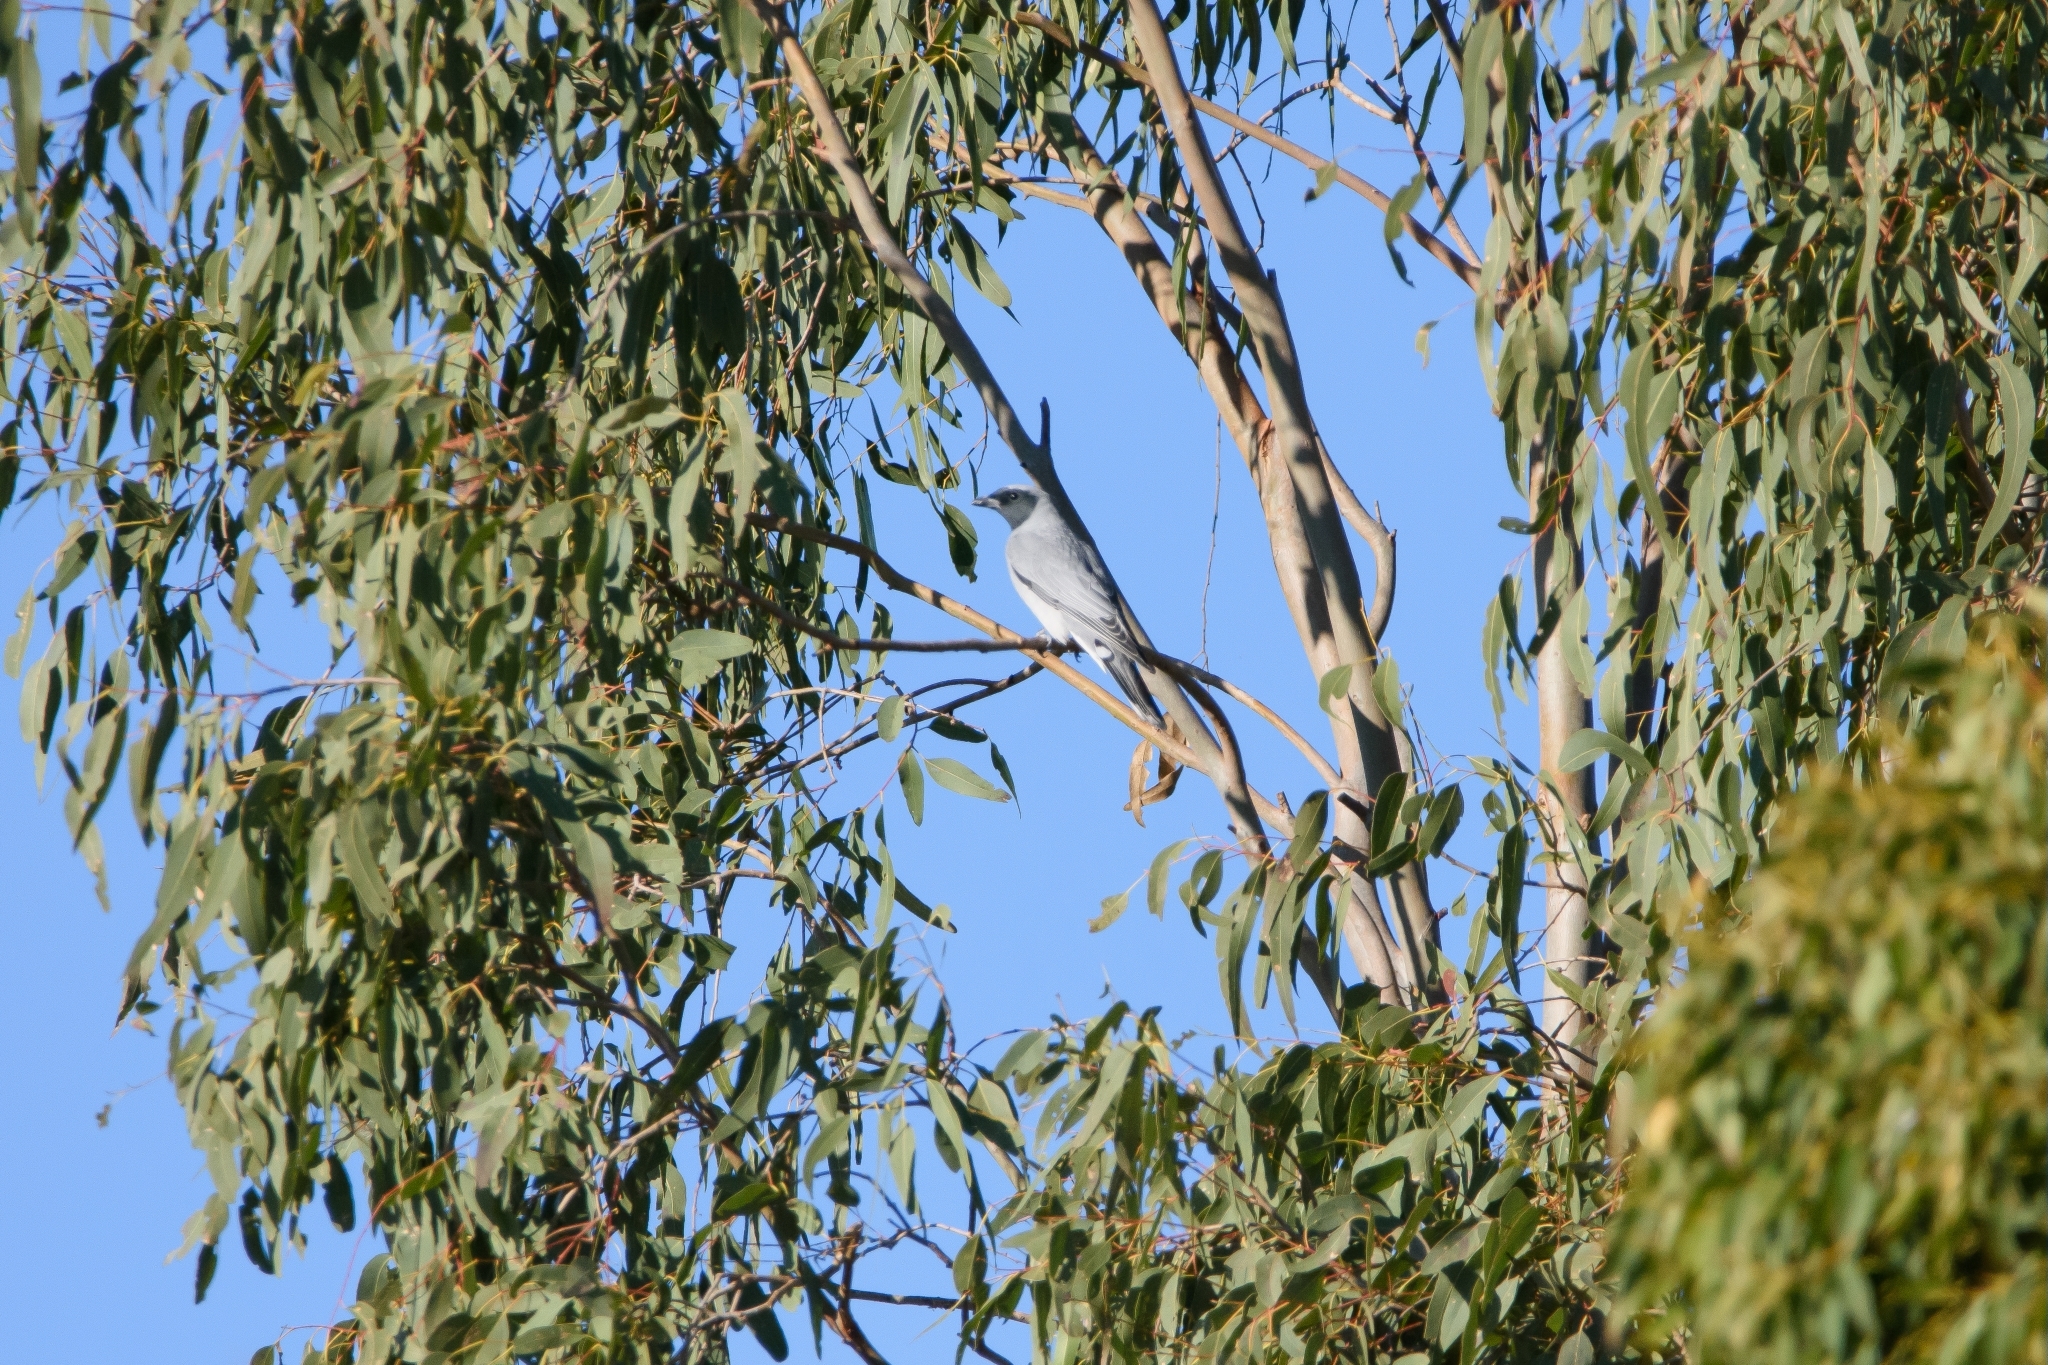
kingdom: Animalia
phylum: Chordata
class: Aves
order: Passeriformes
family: Campephagidae
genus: Coracina
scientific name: Coracina novaehollandiae
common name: Black-faced cuckooshrike
